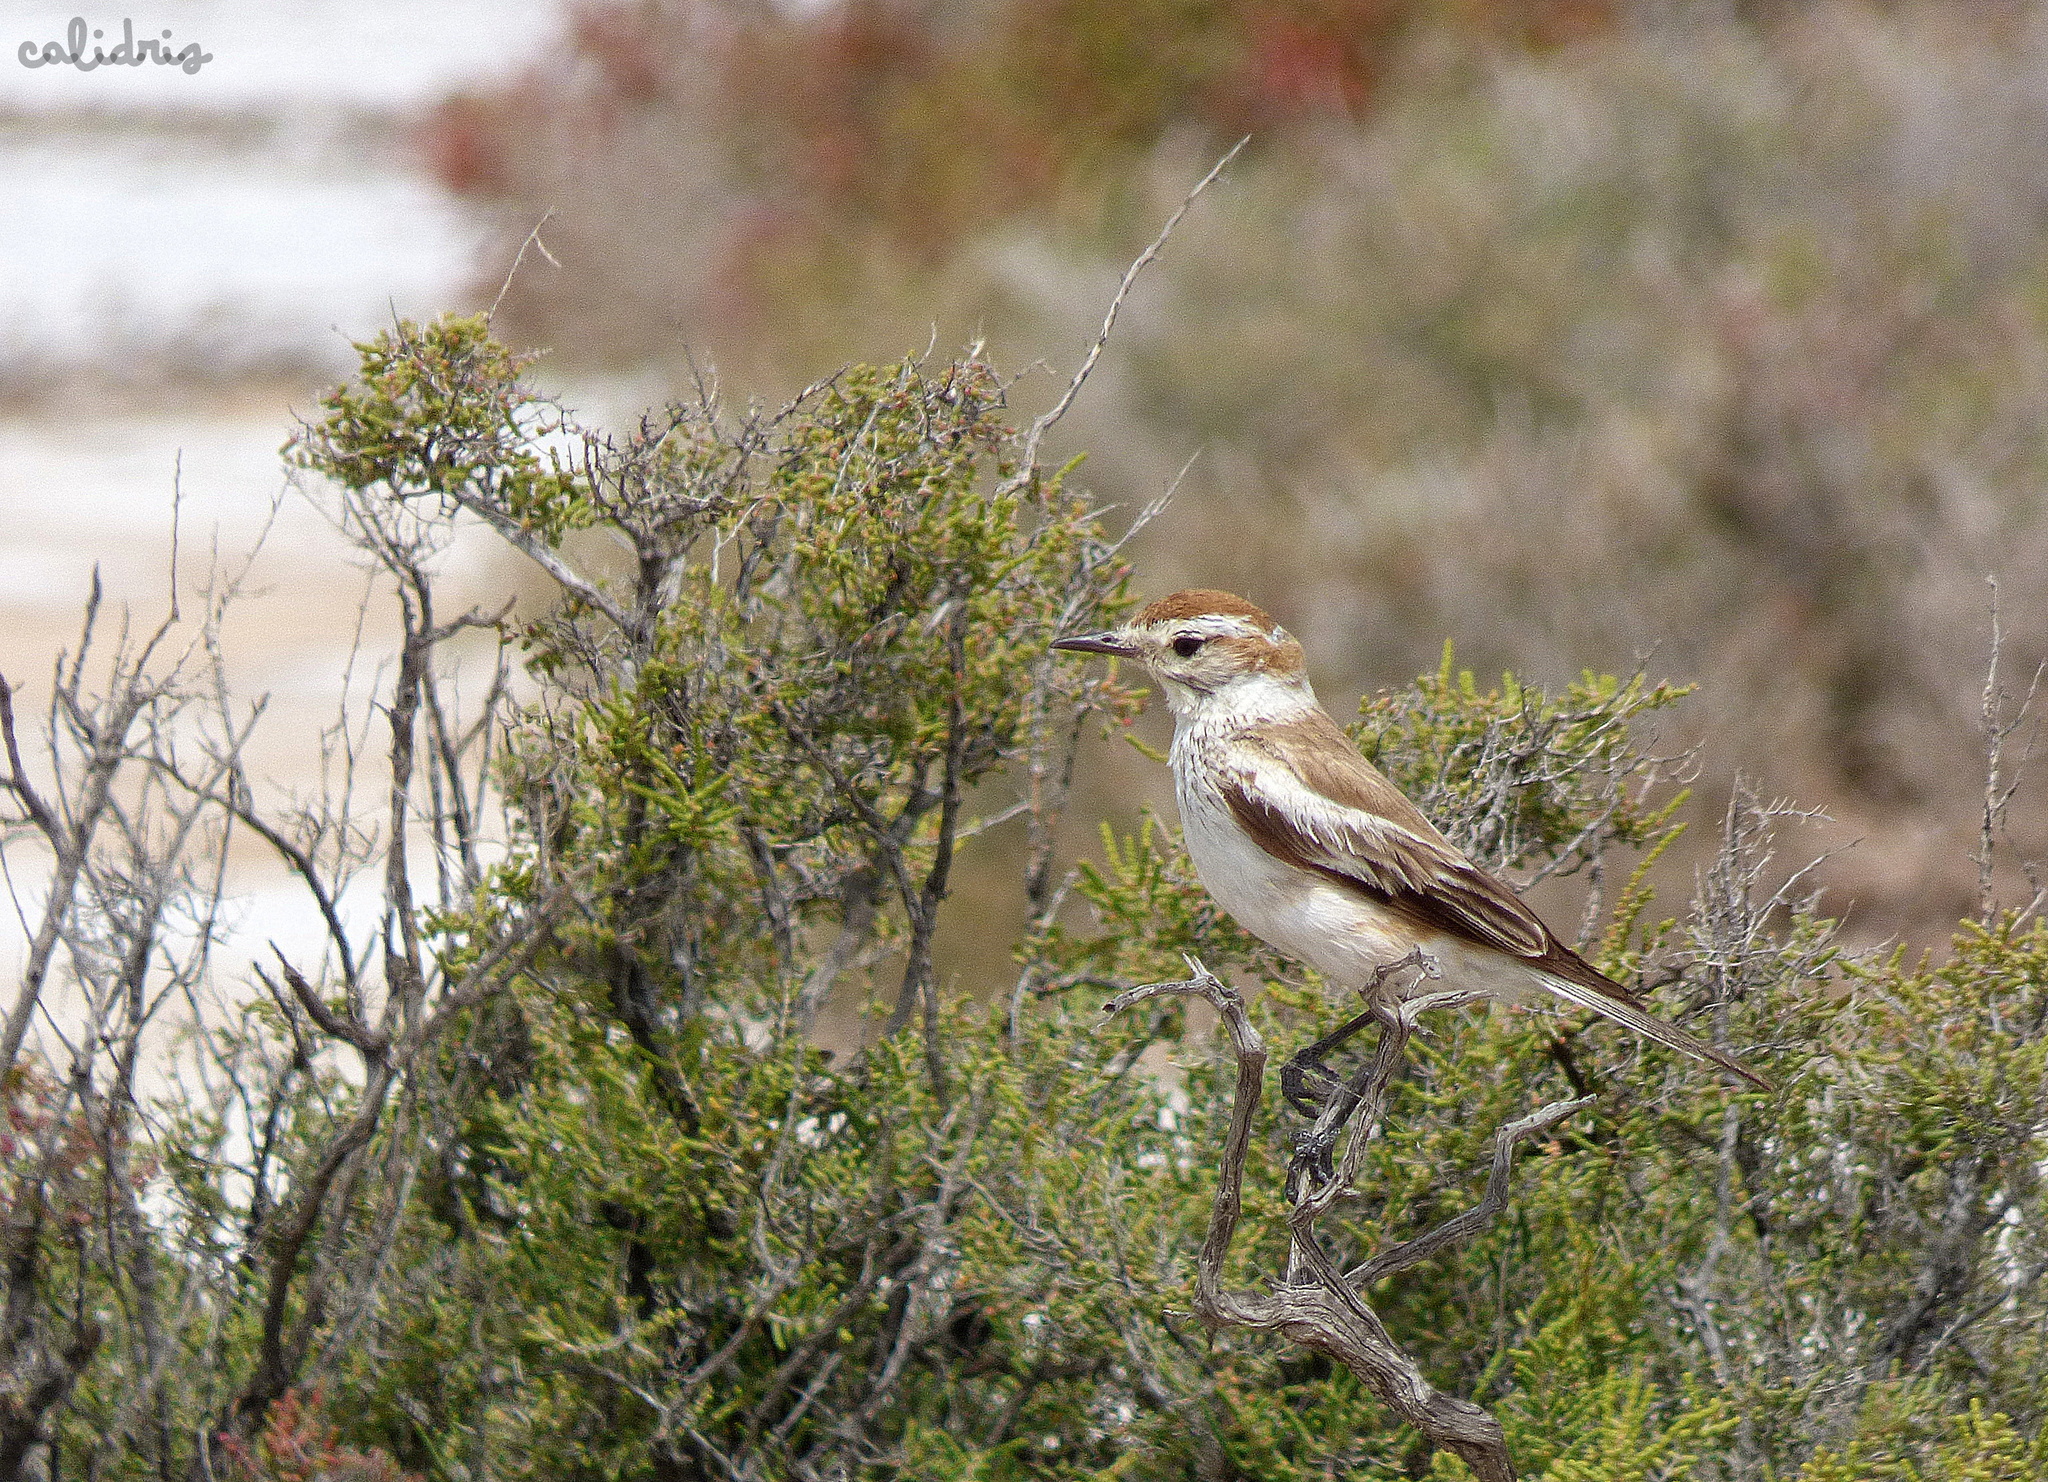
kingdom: Animalia
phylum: Chordata
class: Aves
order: Passeriformes
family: Tyrannidae
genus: Neoxolmis
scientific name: Neoxolmis salinarum
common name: Salinas monjita
